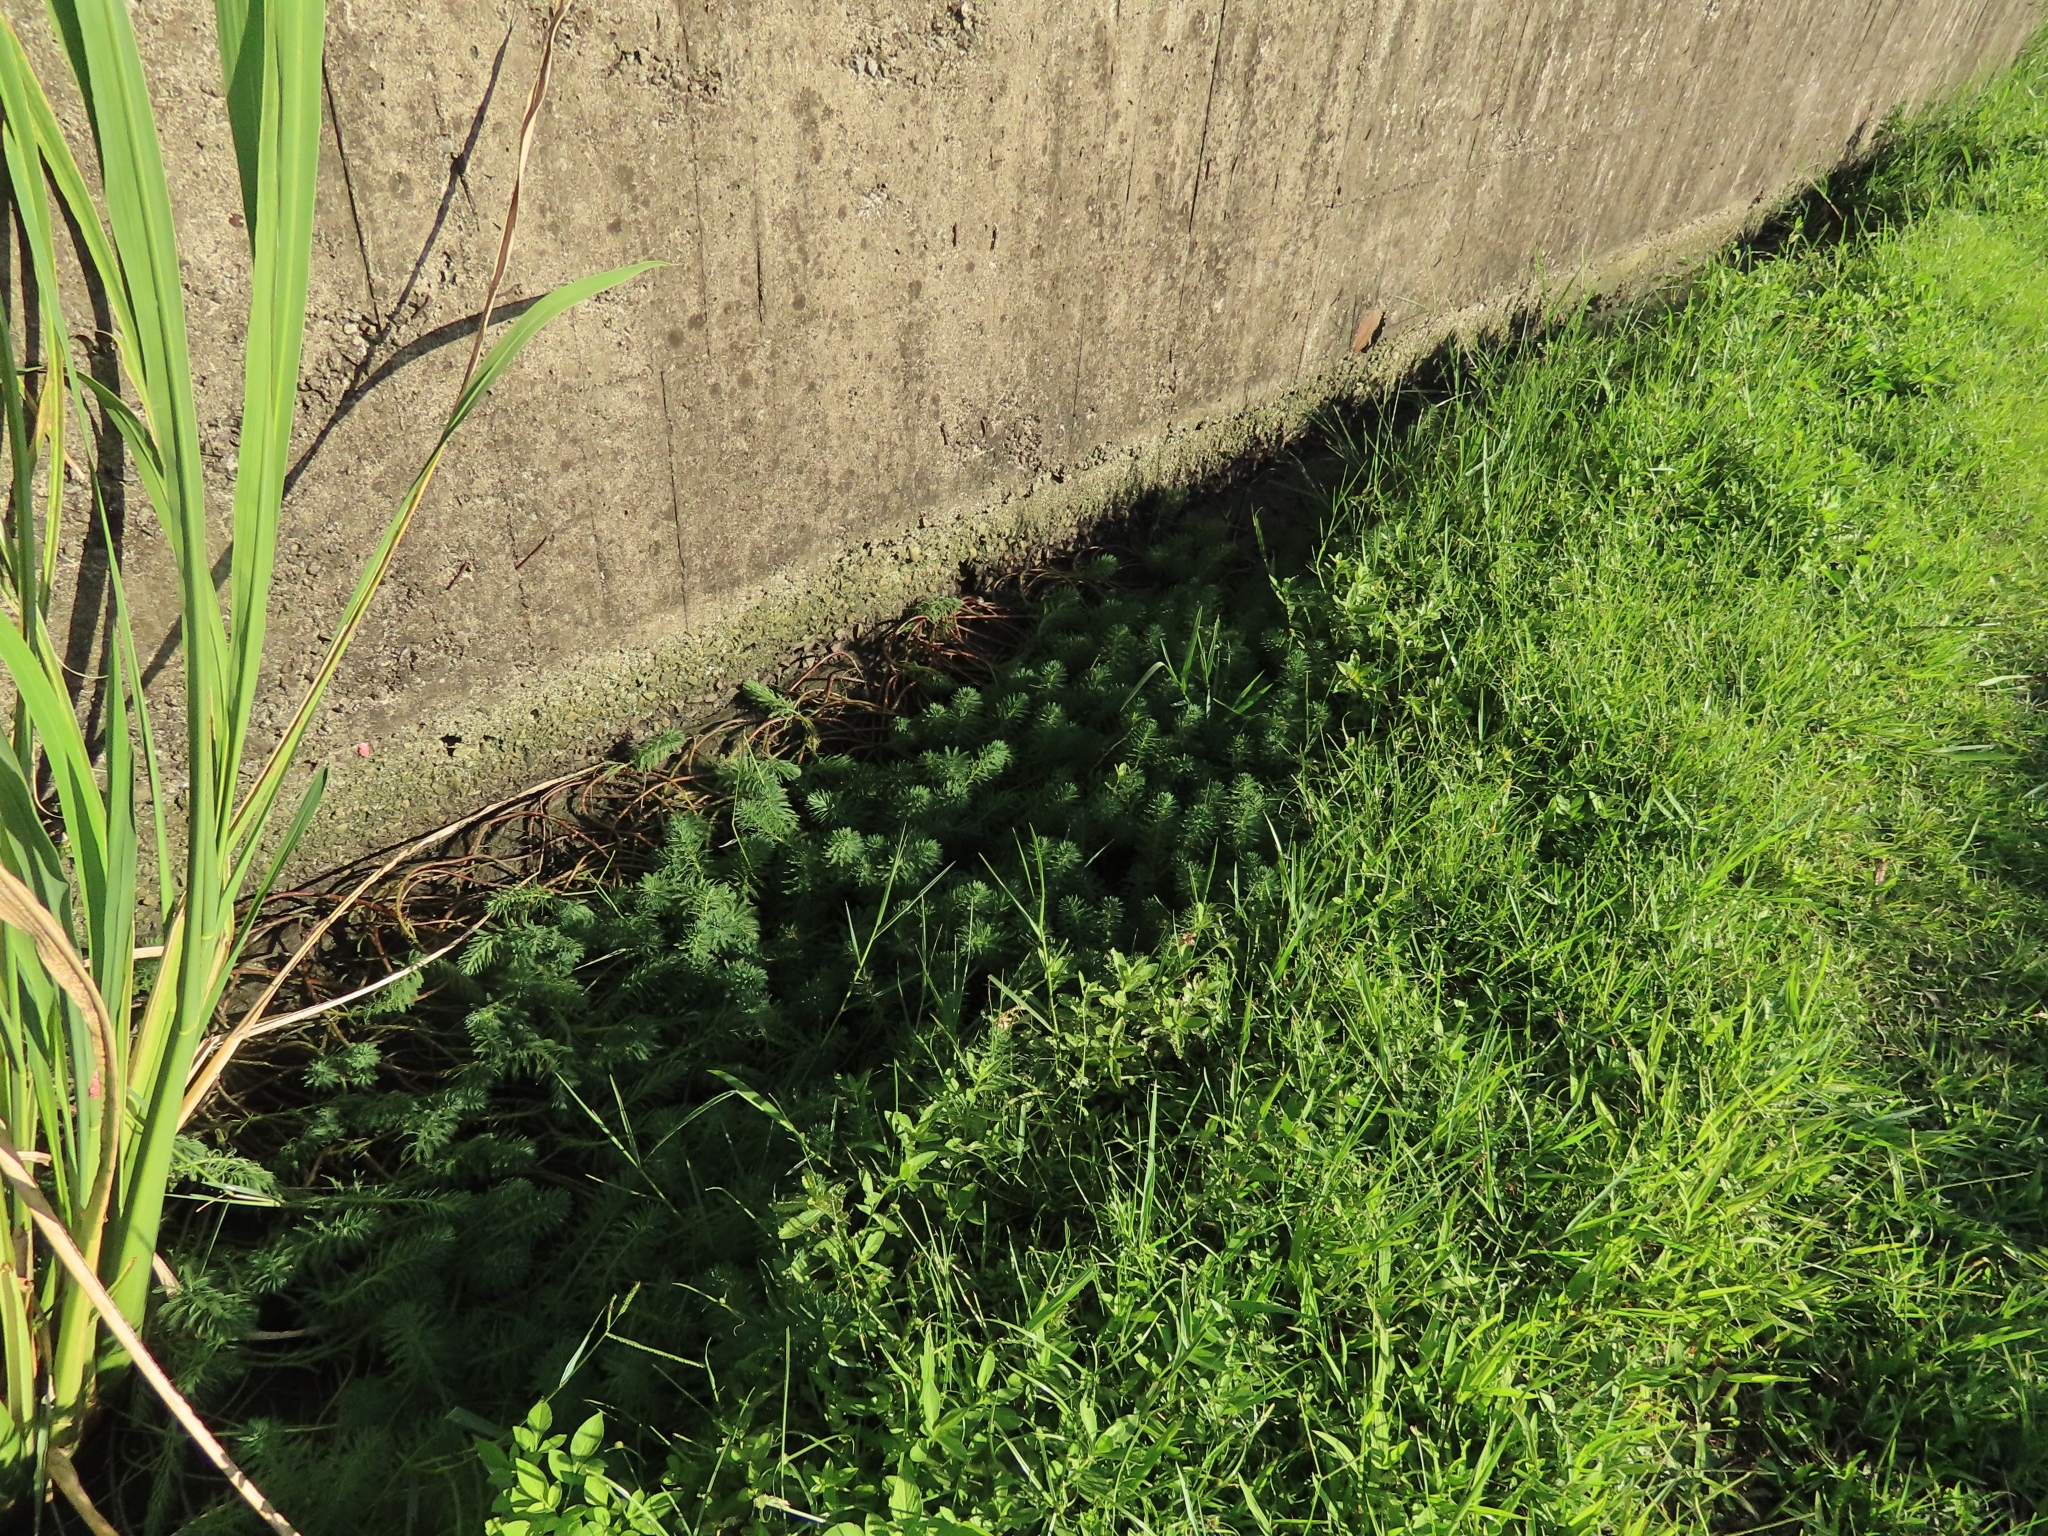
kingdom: Plantae
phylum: Tracheophyta
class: Magnoliopsida
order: Saxifragales
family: Haloragaceae
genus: Myriophyllum
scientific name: Myriophyllum aquaticum
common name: Parrot's feather
